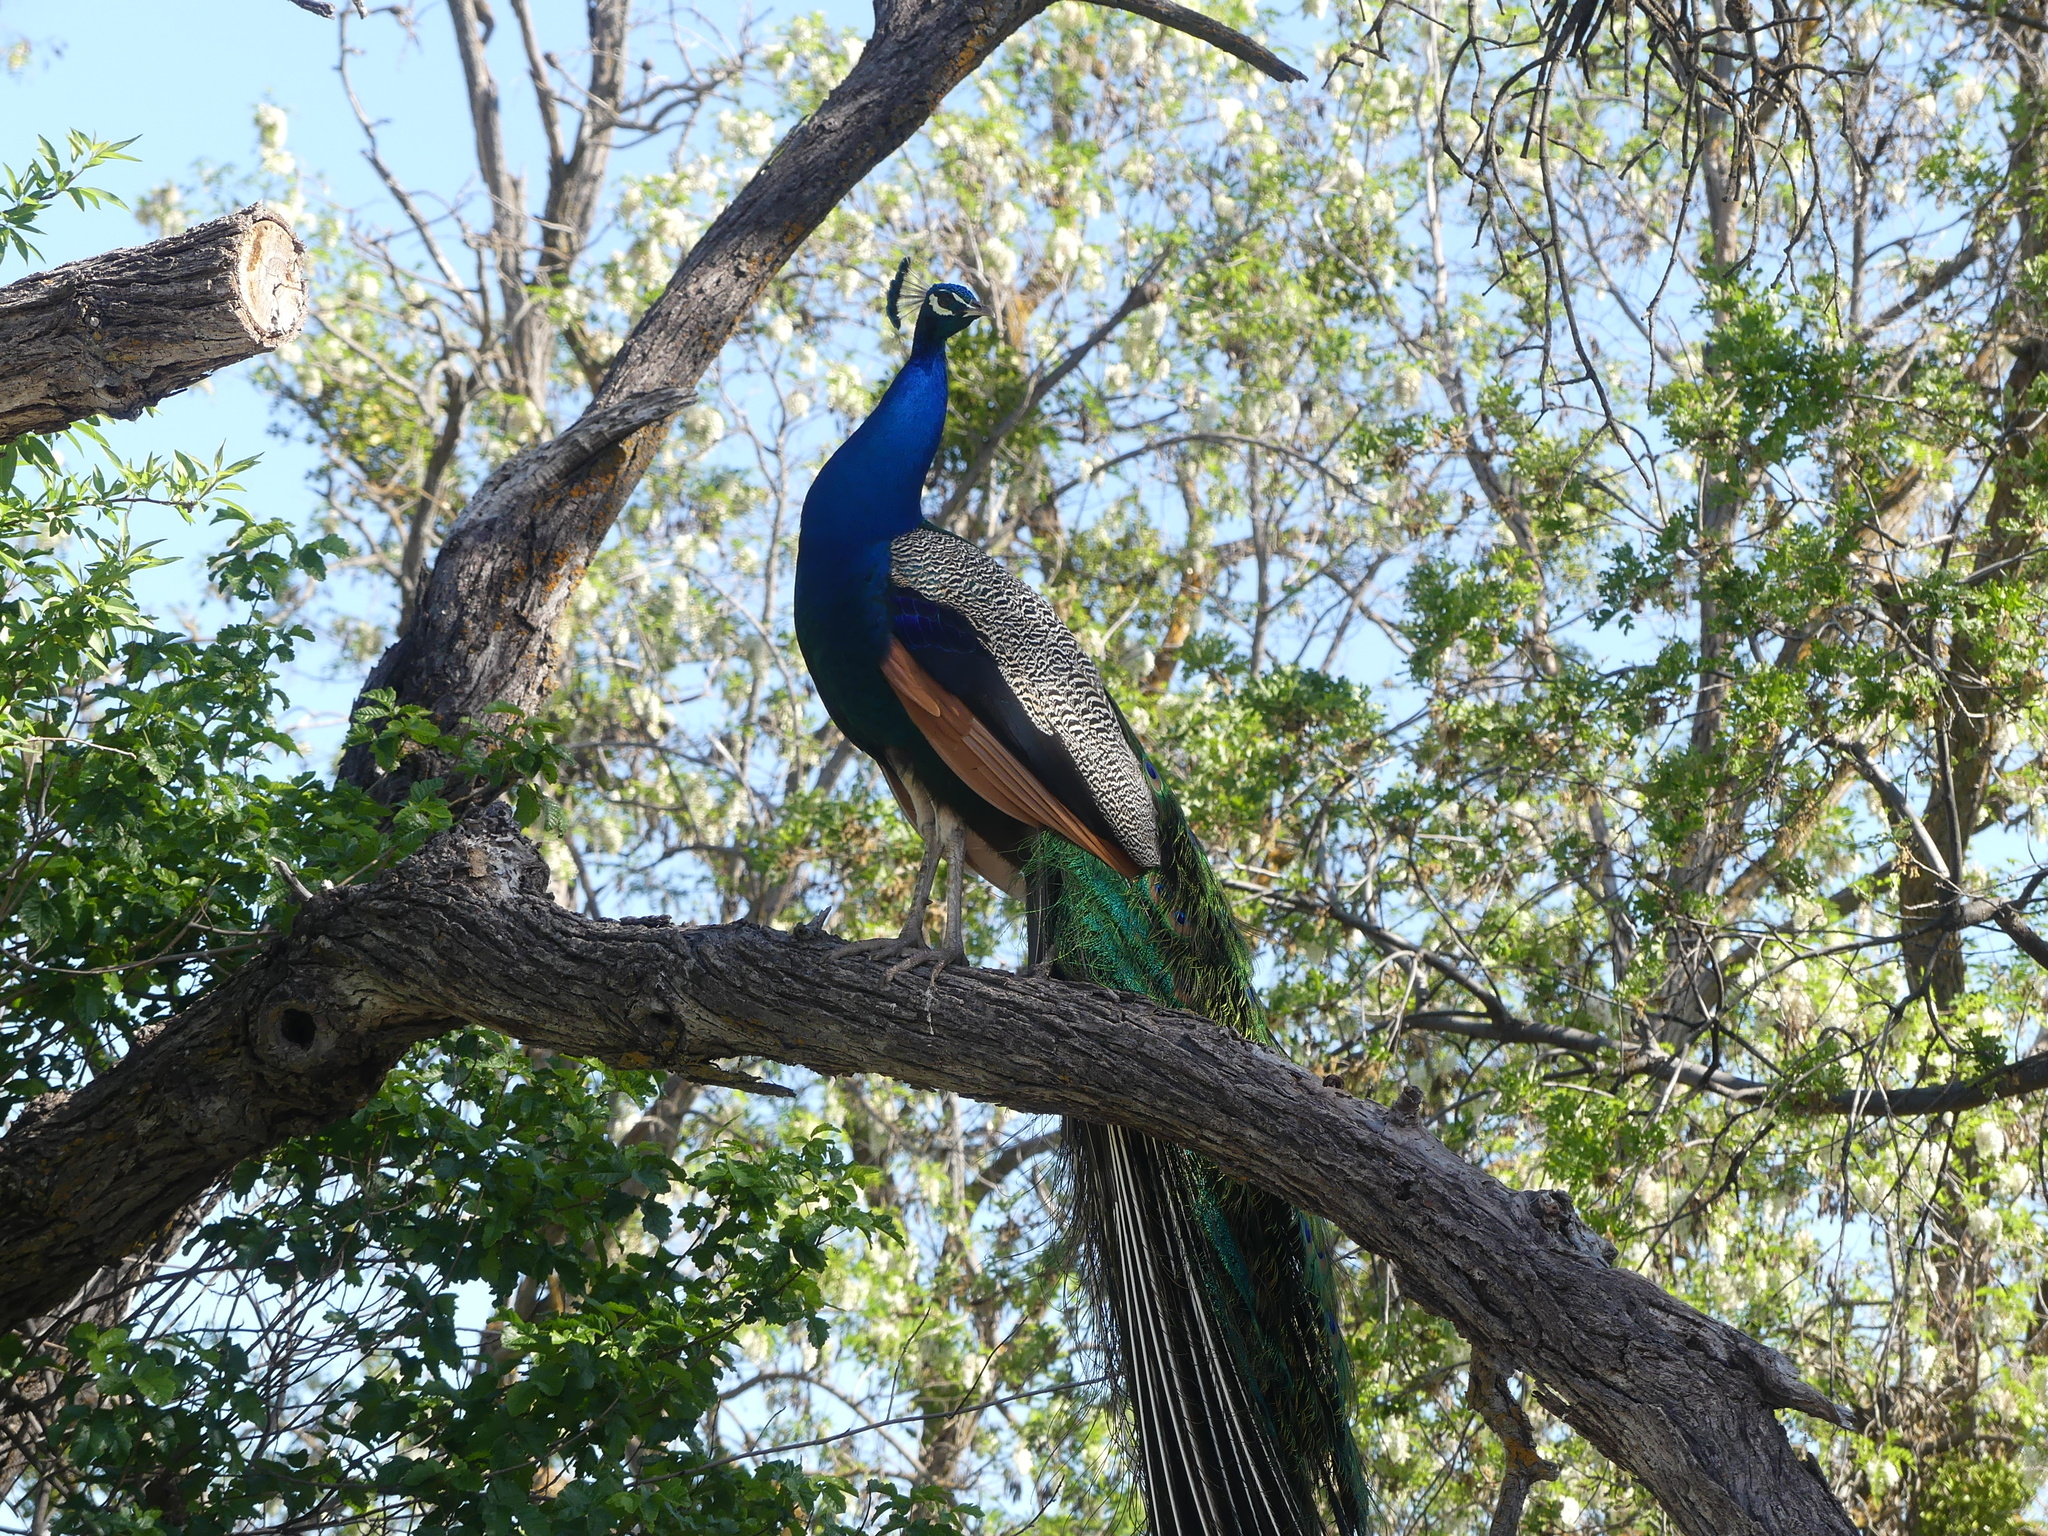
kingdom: Animalia
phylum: Chordata
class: Aves
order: Galliformes
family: Phasianidae
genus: Pavo
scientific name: Pavo cristatus
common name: Indian peafowl
